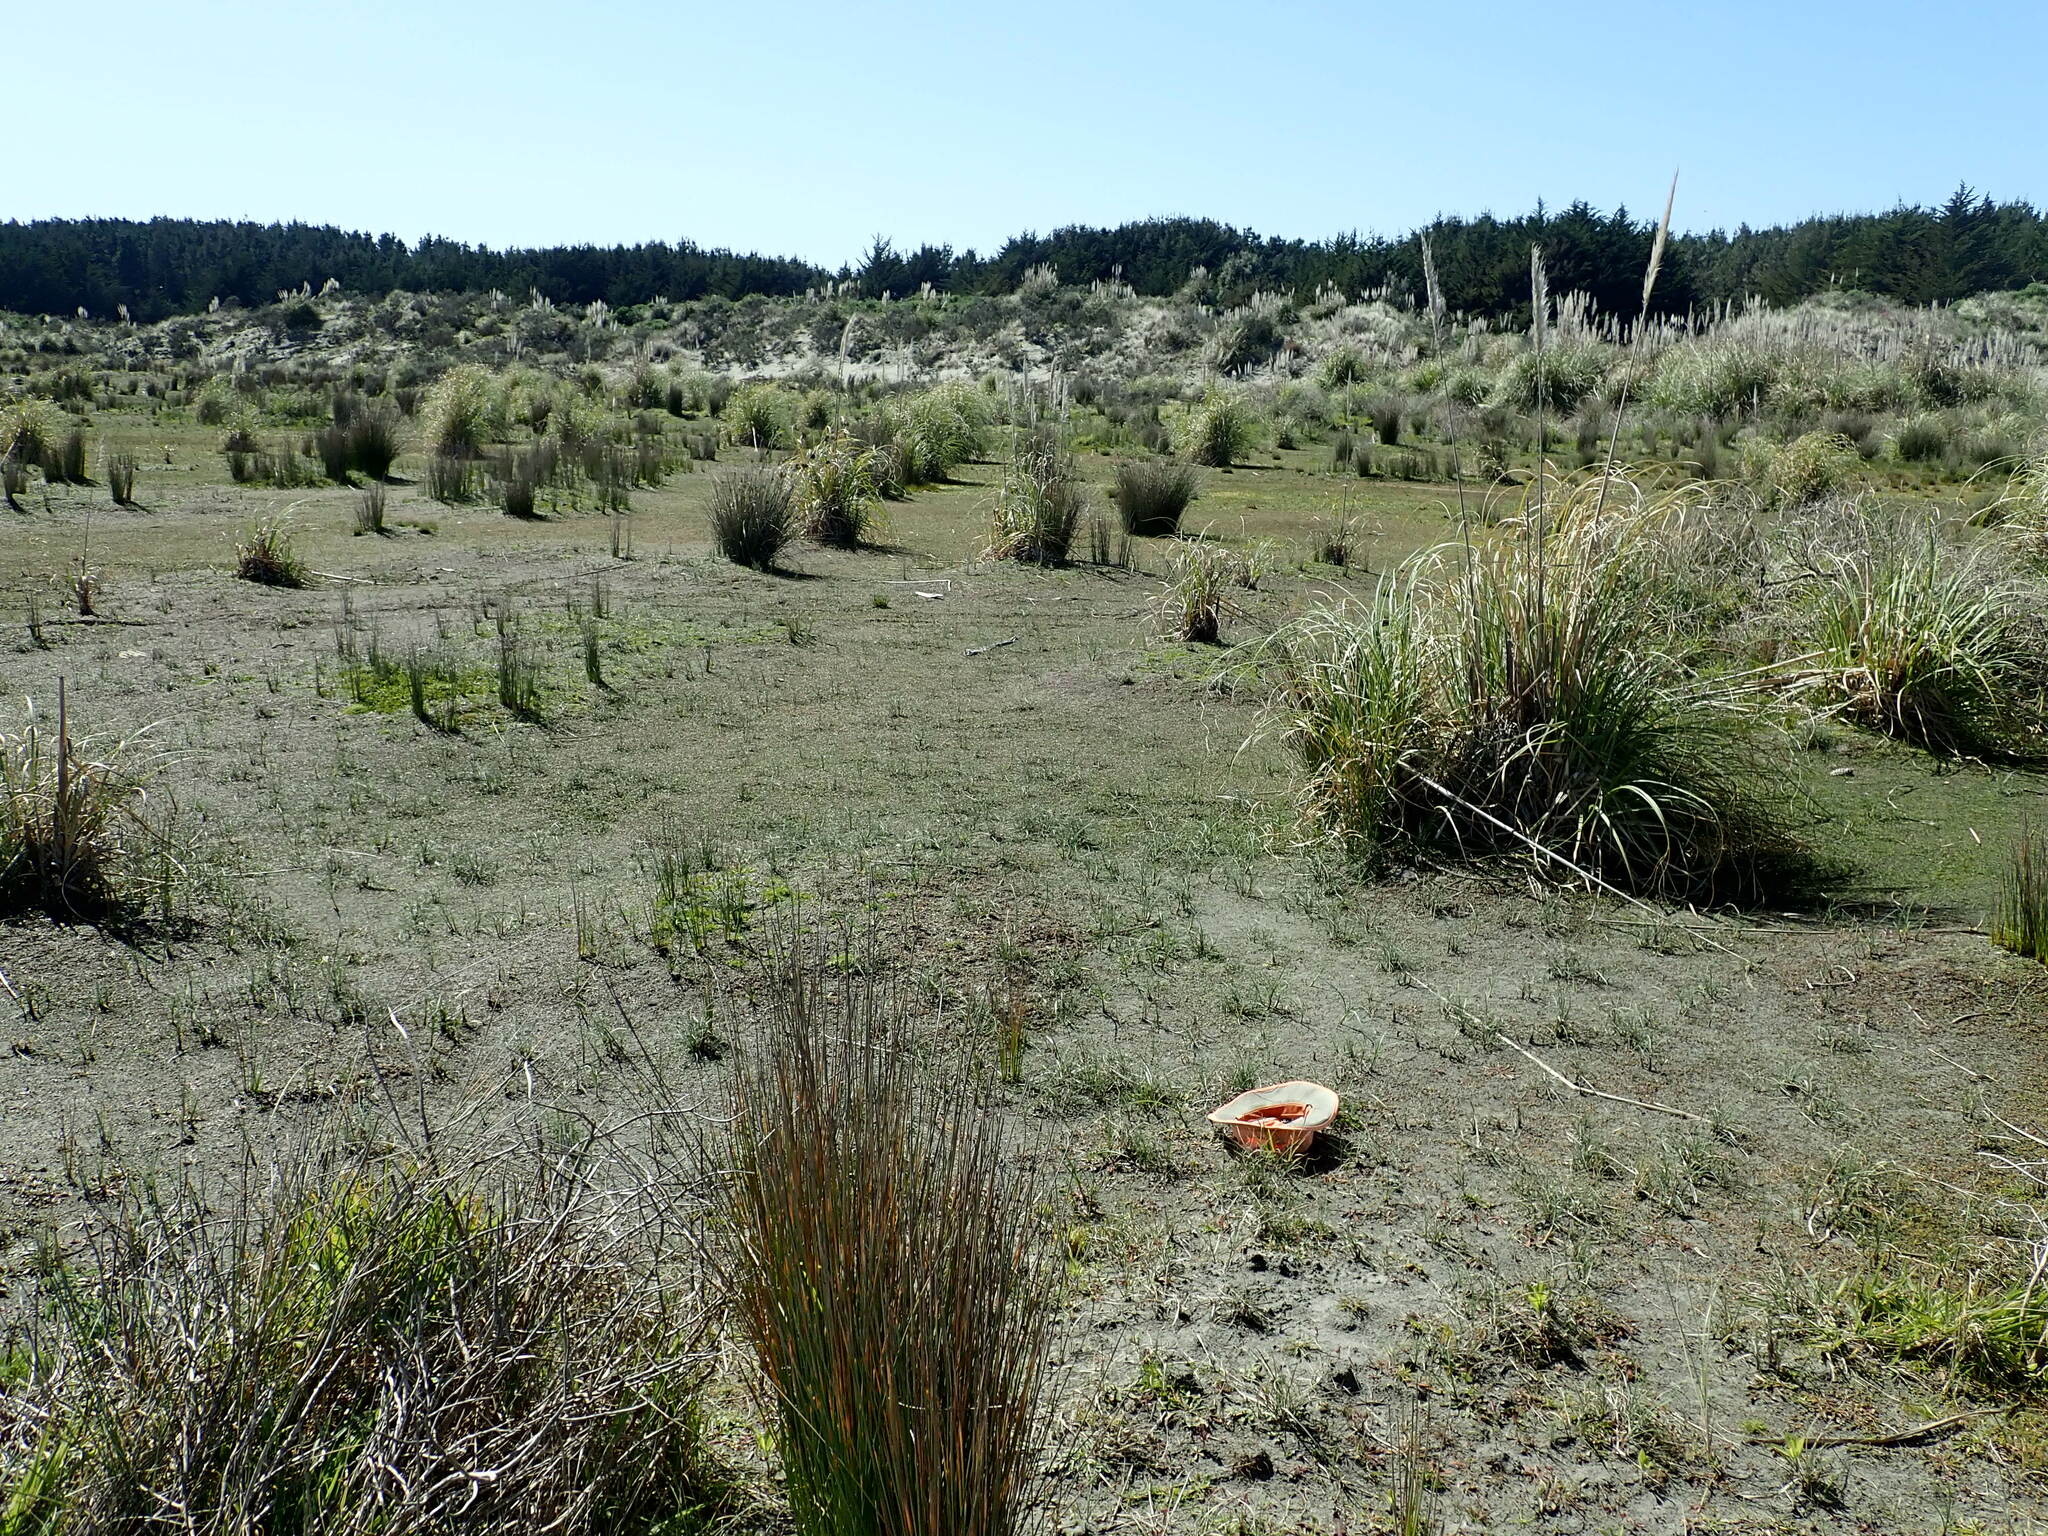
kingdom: Plantae
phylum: Tracheophyta
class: Magnoliopsida
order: Ranunculales
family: Ranunculaceae
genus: Ranunculus
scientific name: Ranunculus acaulis
